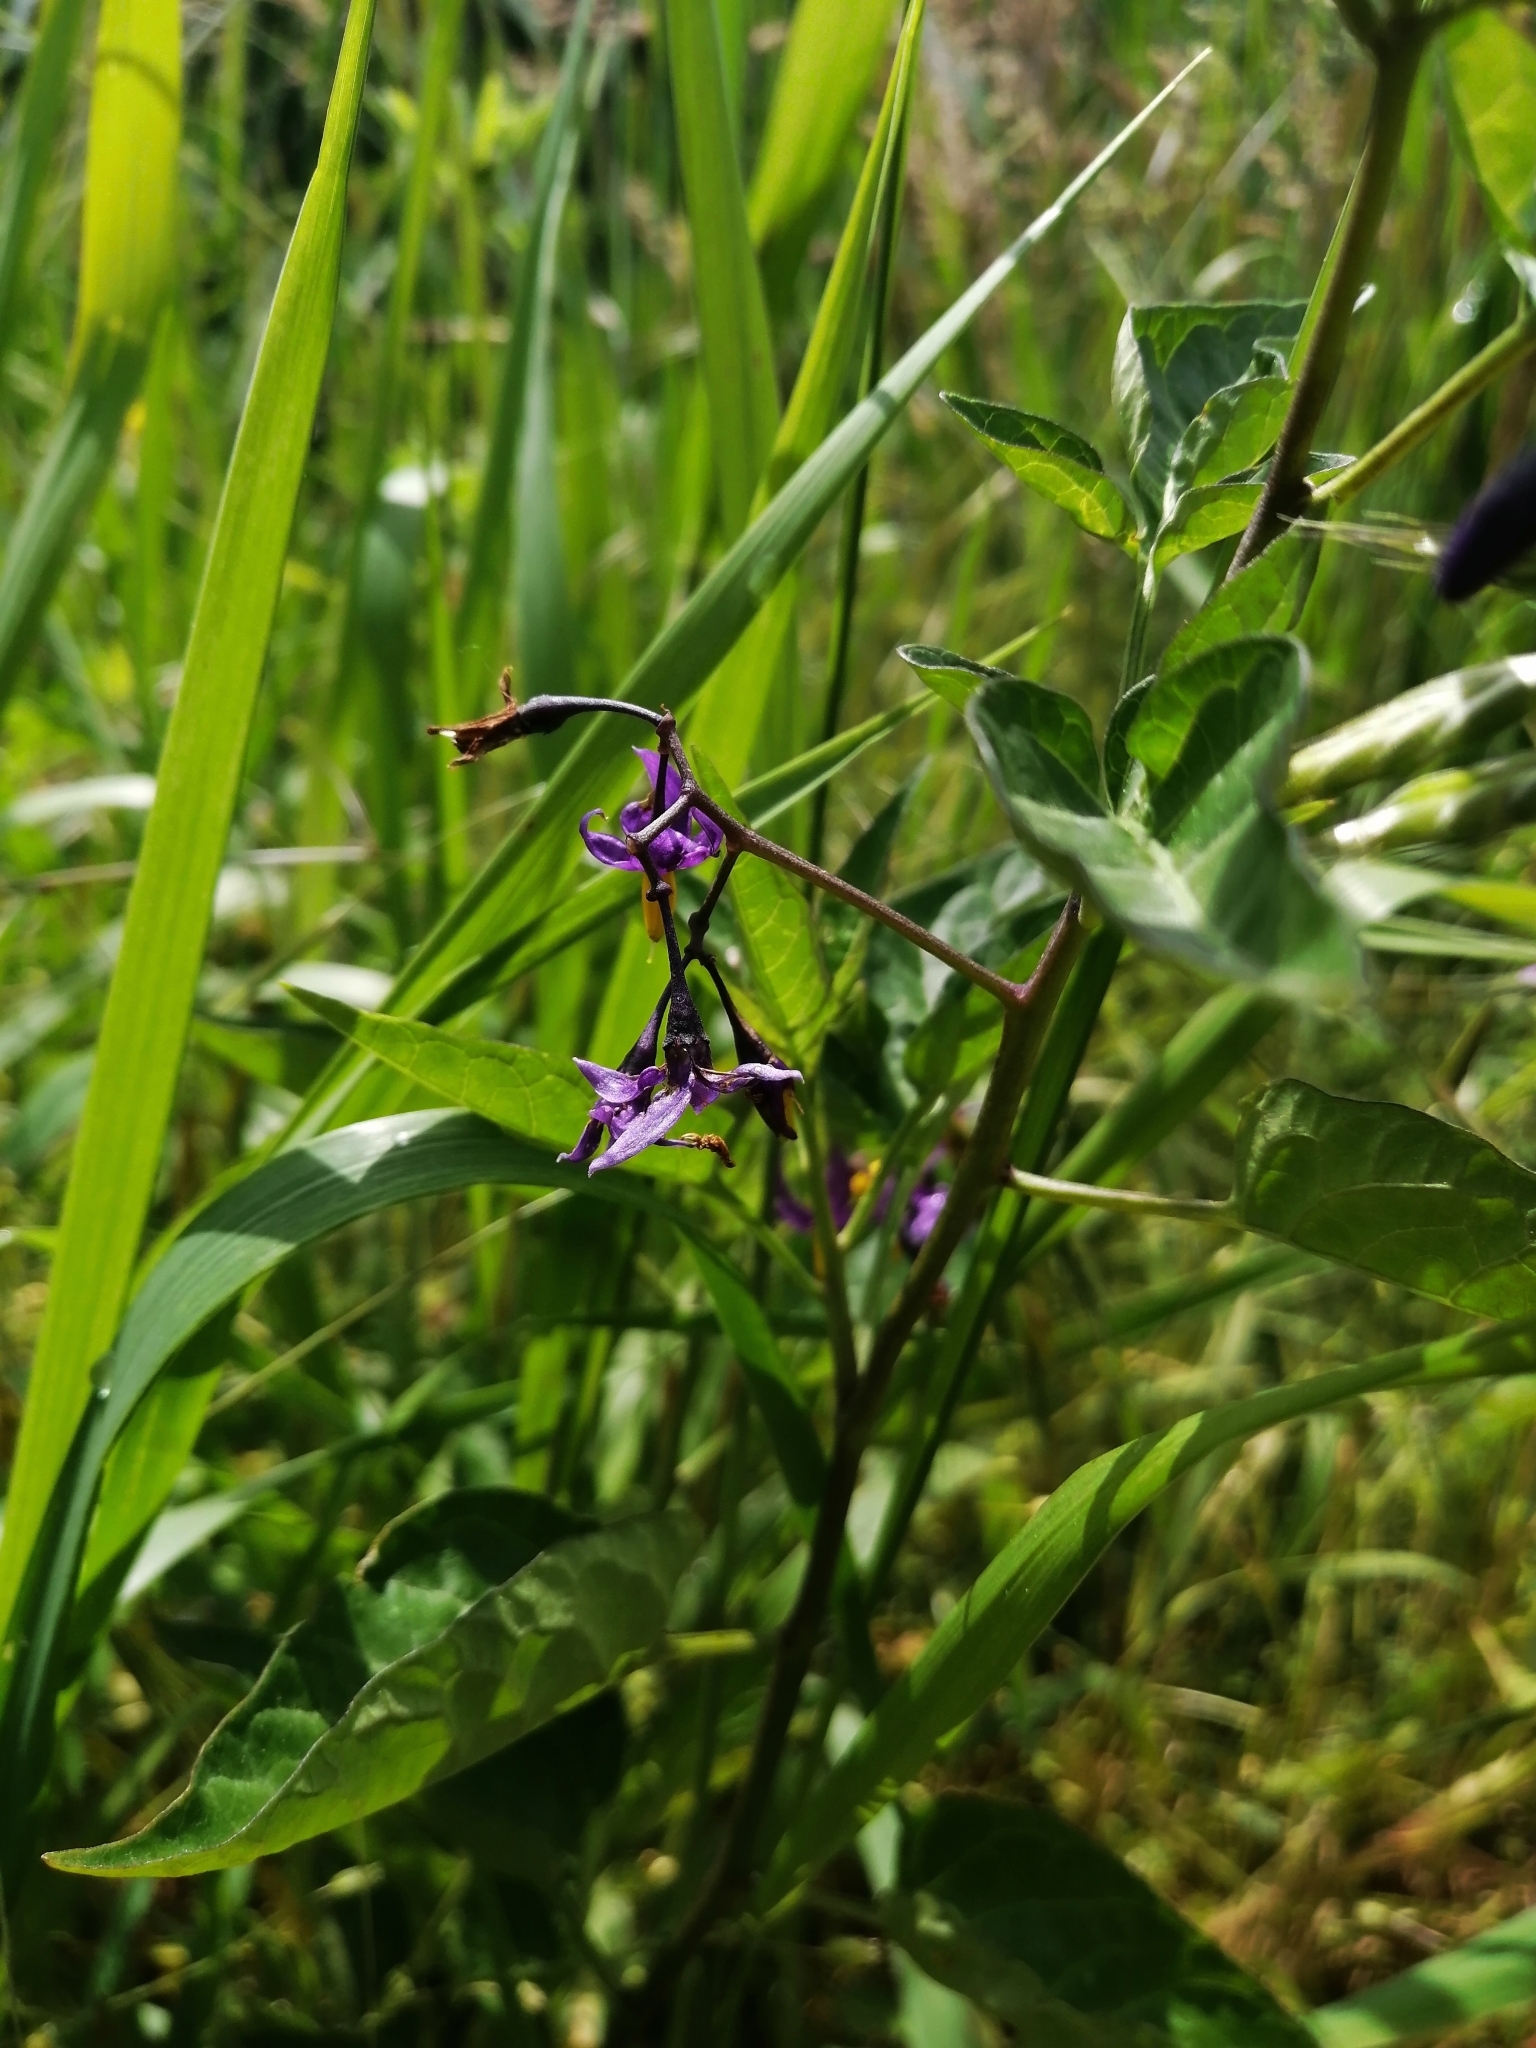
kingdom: Plantae
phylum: Tracheophyta
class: Magnoliopsida
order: Solanales
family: Solanaceae
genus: Solanum
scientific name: Solanum dulcamara
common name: Climbing nightshade
